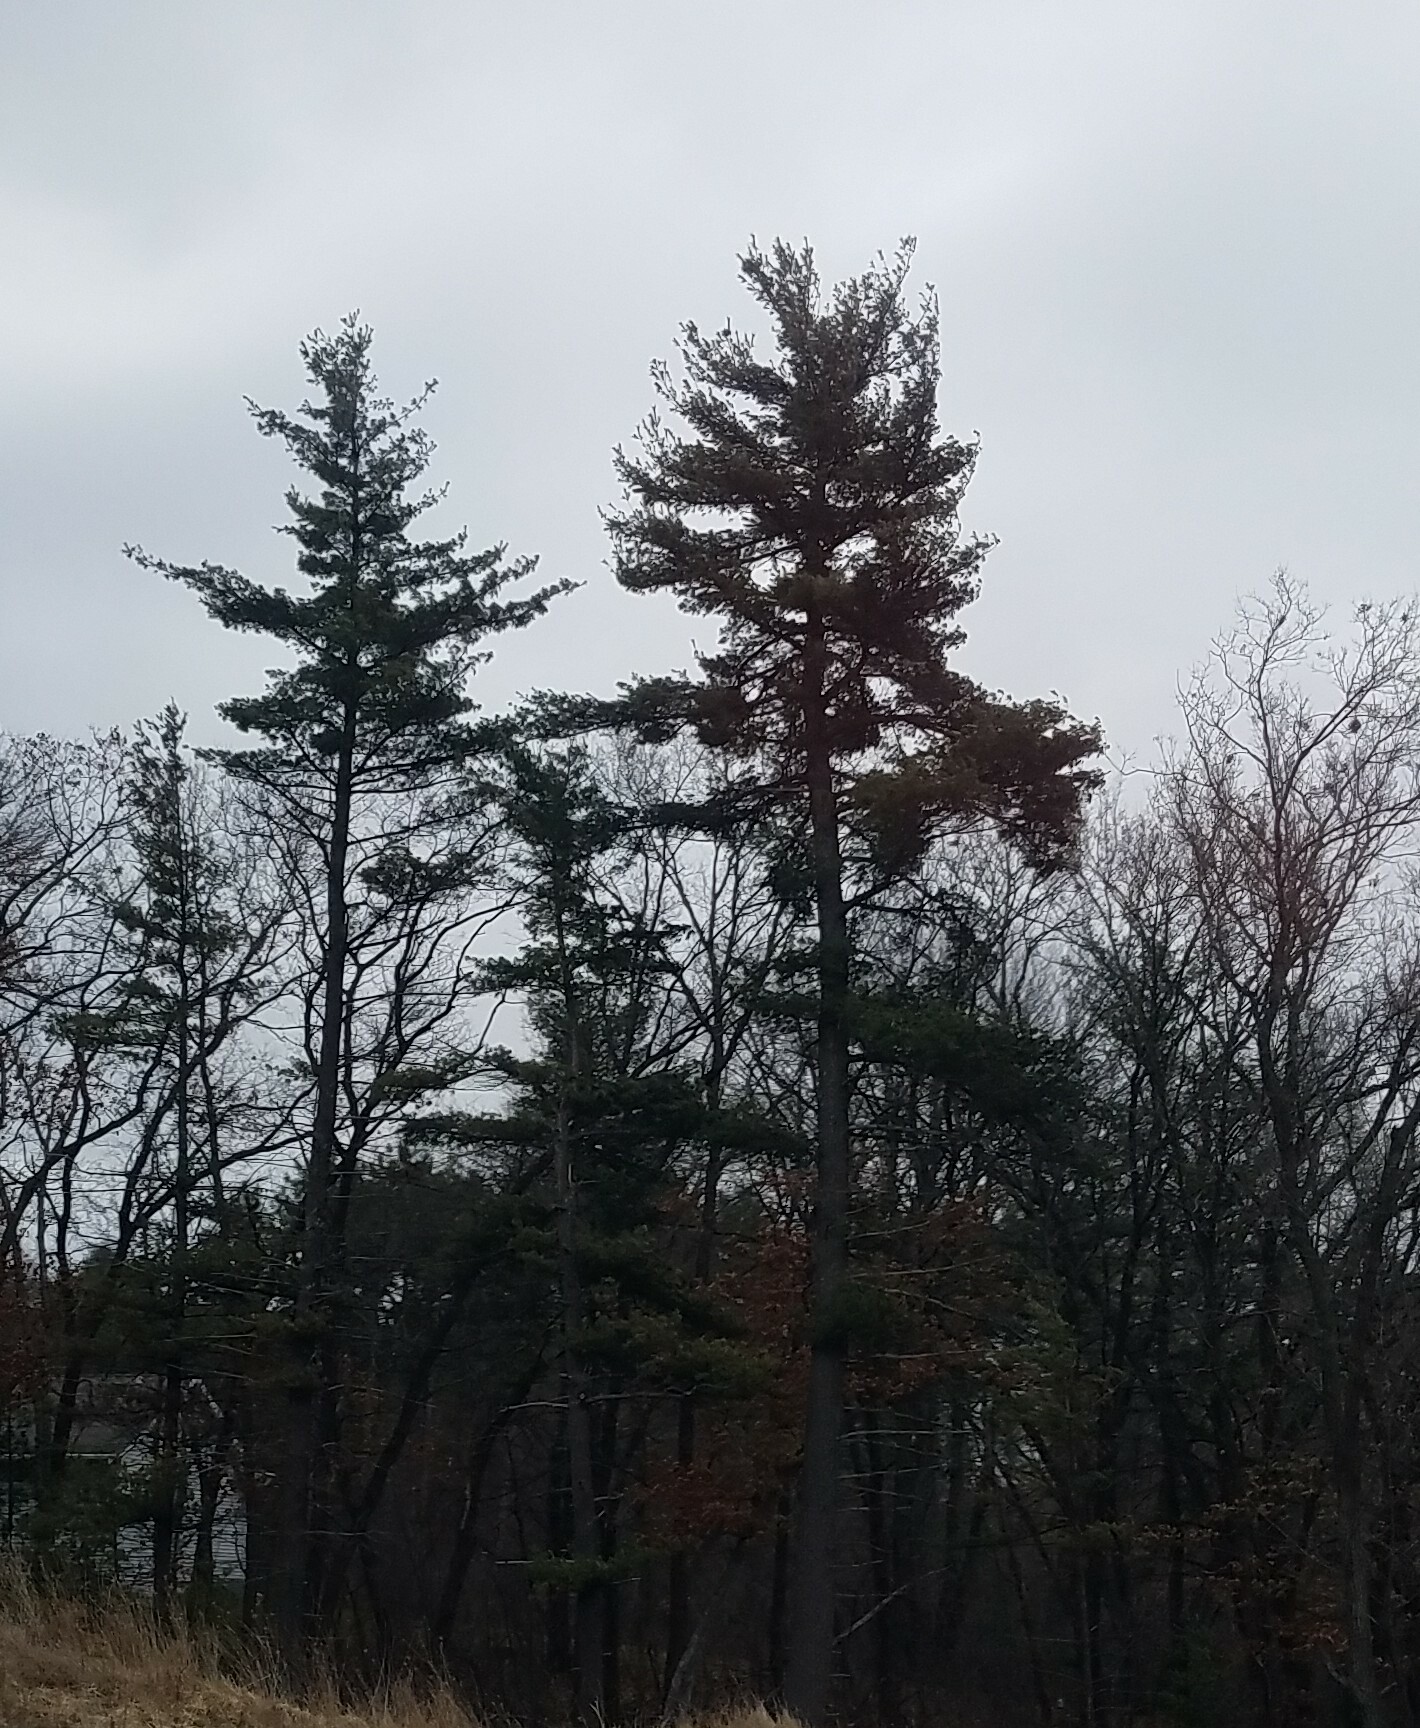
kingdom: Plantae
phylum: Tracheophyta
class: Pinopsida
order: Pinales
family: Pinaceae
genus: Pinus
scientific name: Pinus strobus
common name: Weymouth pine
